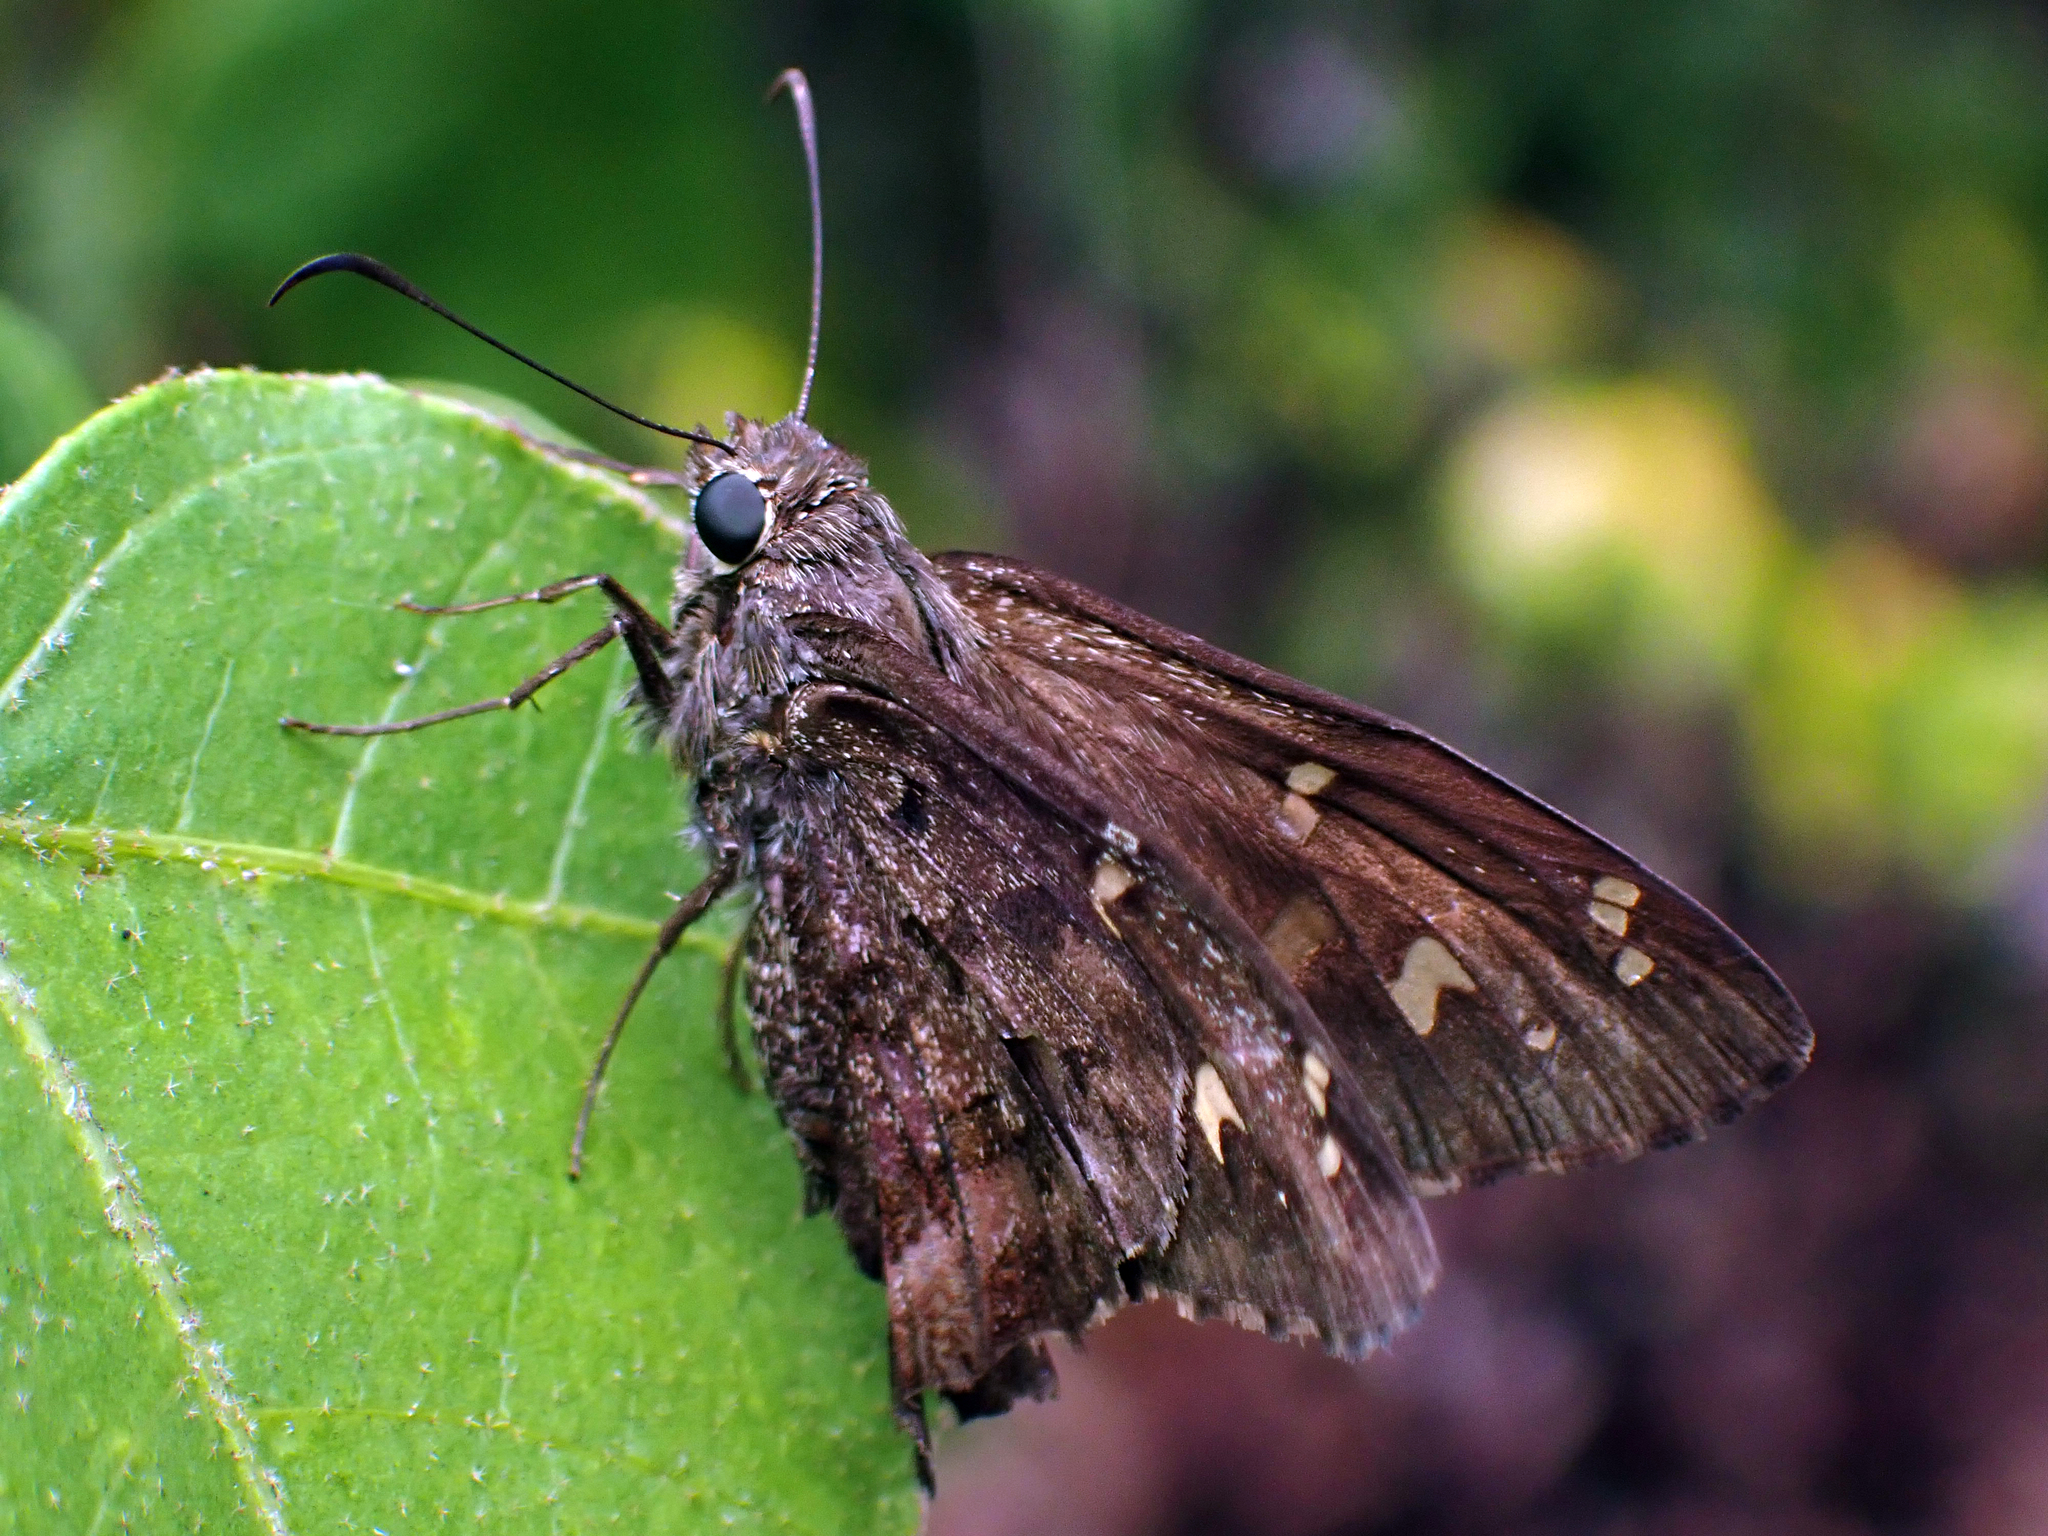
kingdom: Animalia
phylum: Arthropoda
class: Insecta
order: Lepidoptera
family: Hesperiidae
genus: Thorybes
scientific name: Thorybes
